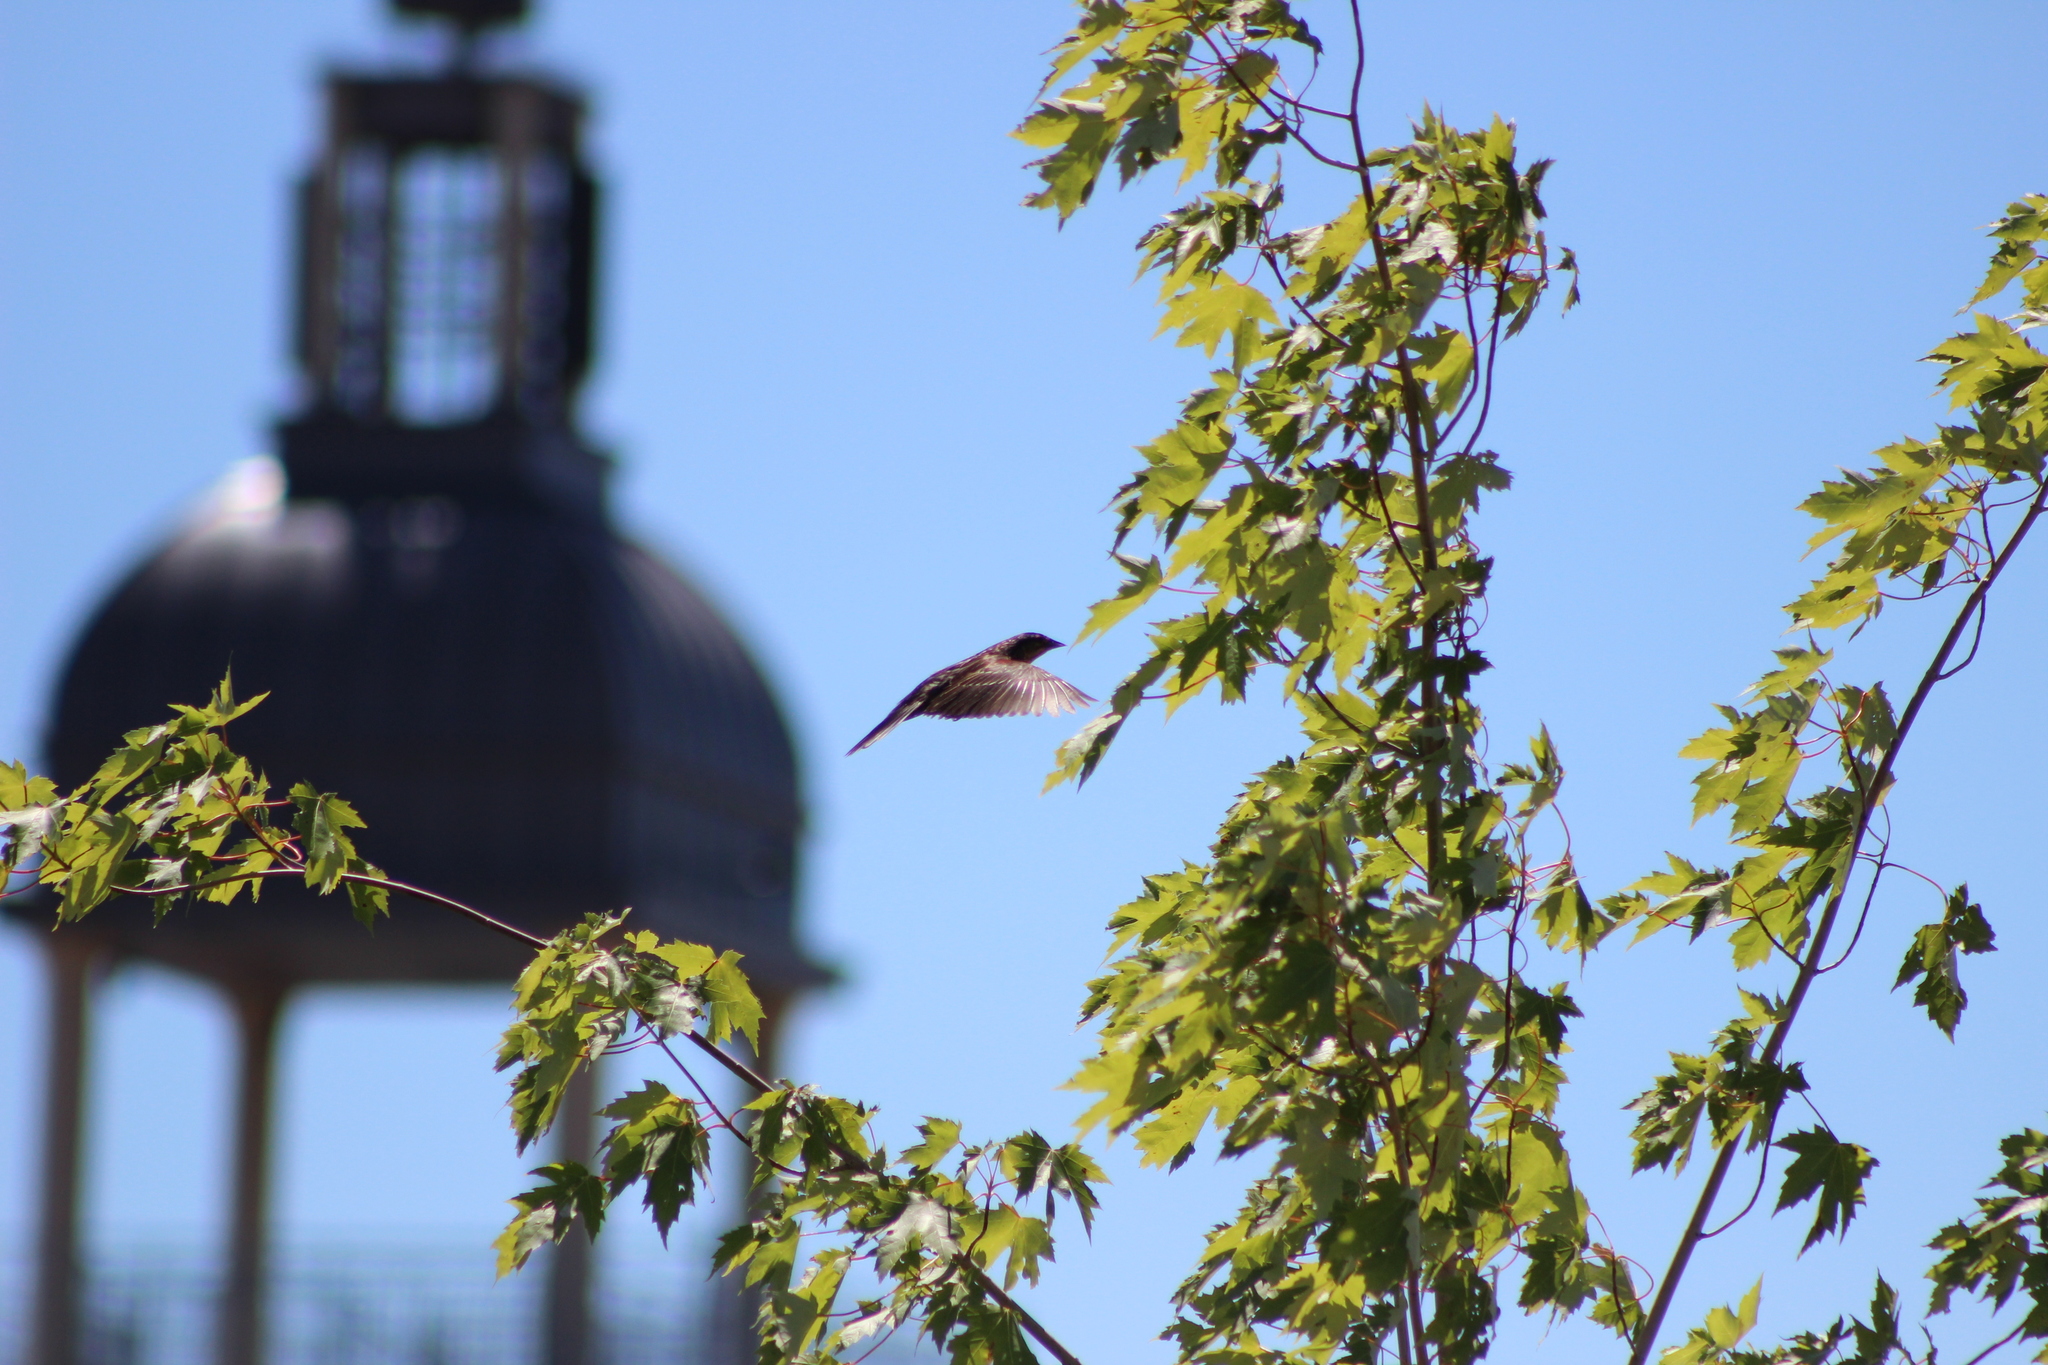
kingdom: Animalia
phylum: Chordata
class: Aves
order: Passeriformes
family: Icteridae
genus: Agelaius
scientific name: Agelaius phoeniceus
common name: Red-winged blackbird
